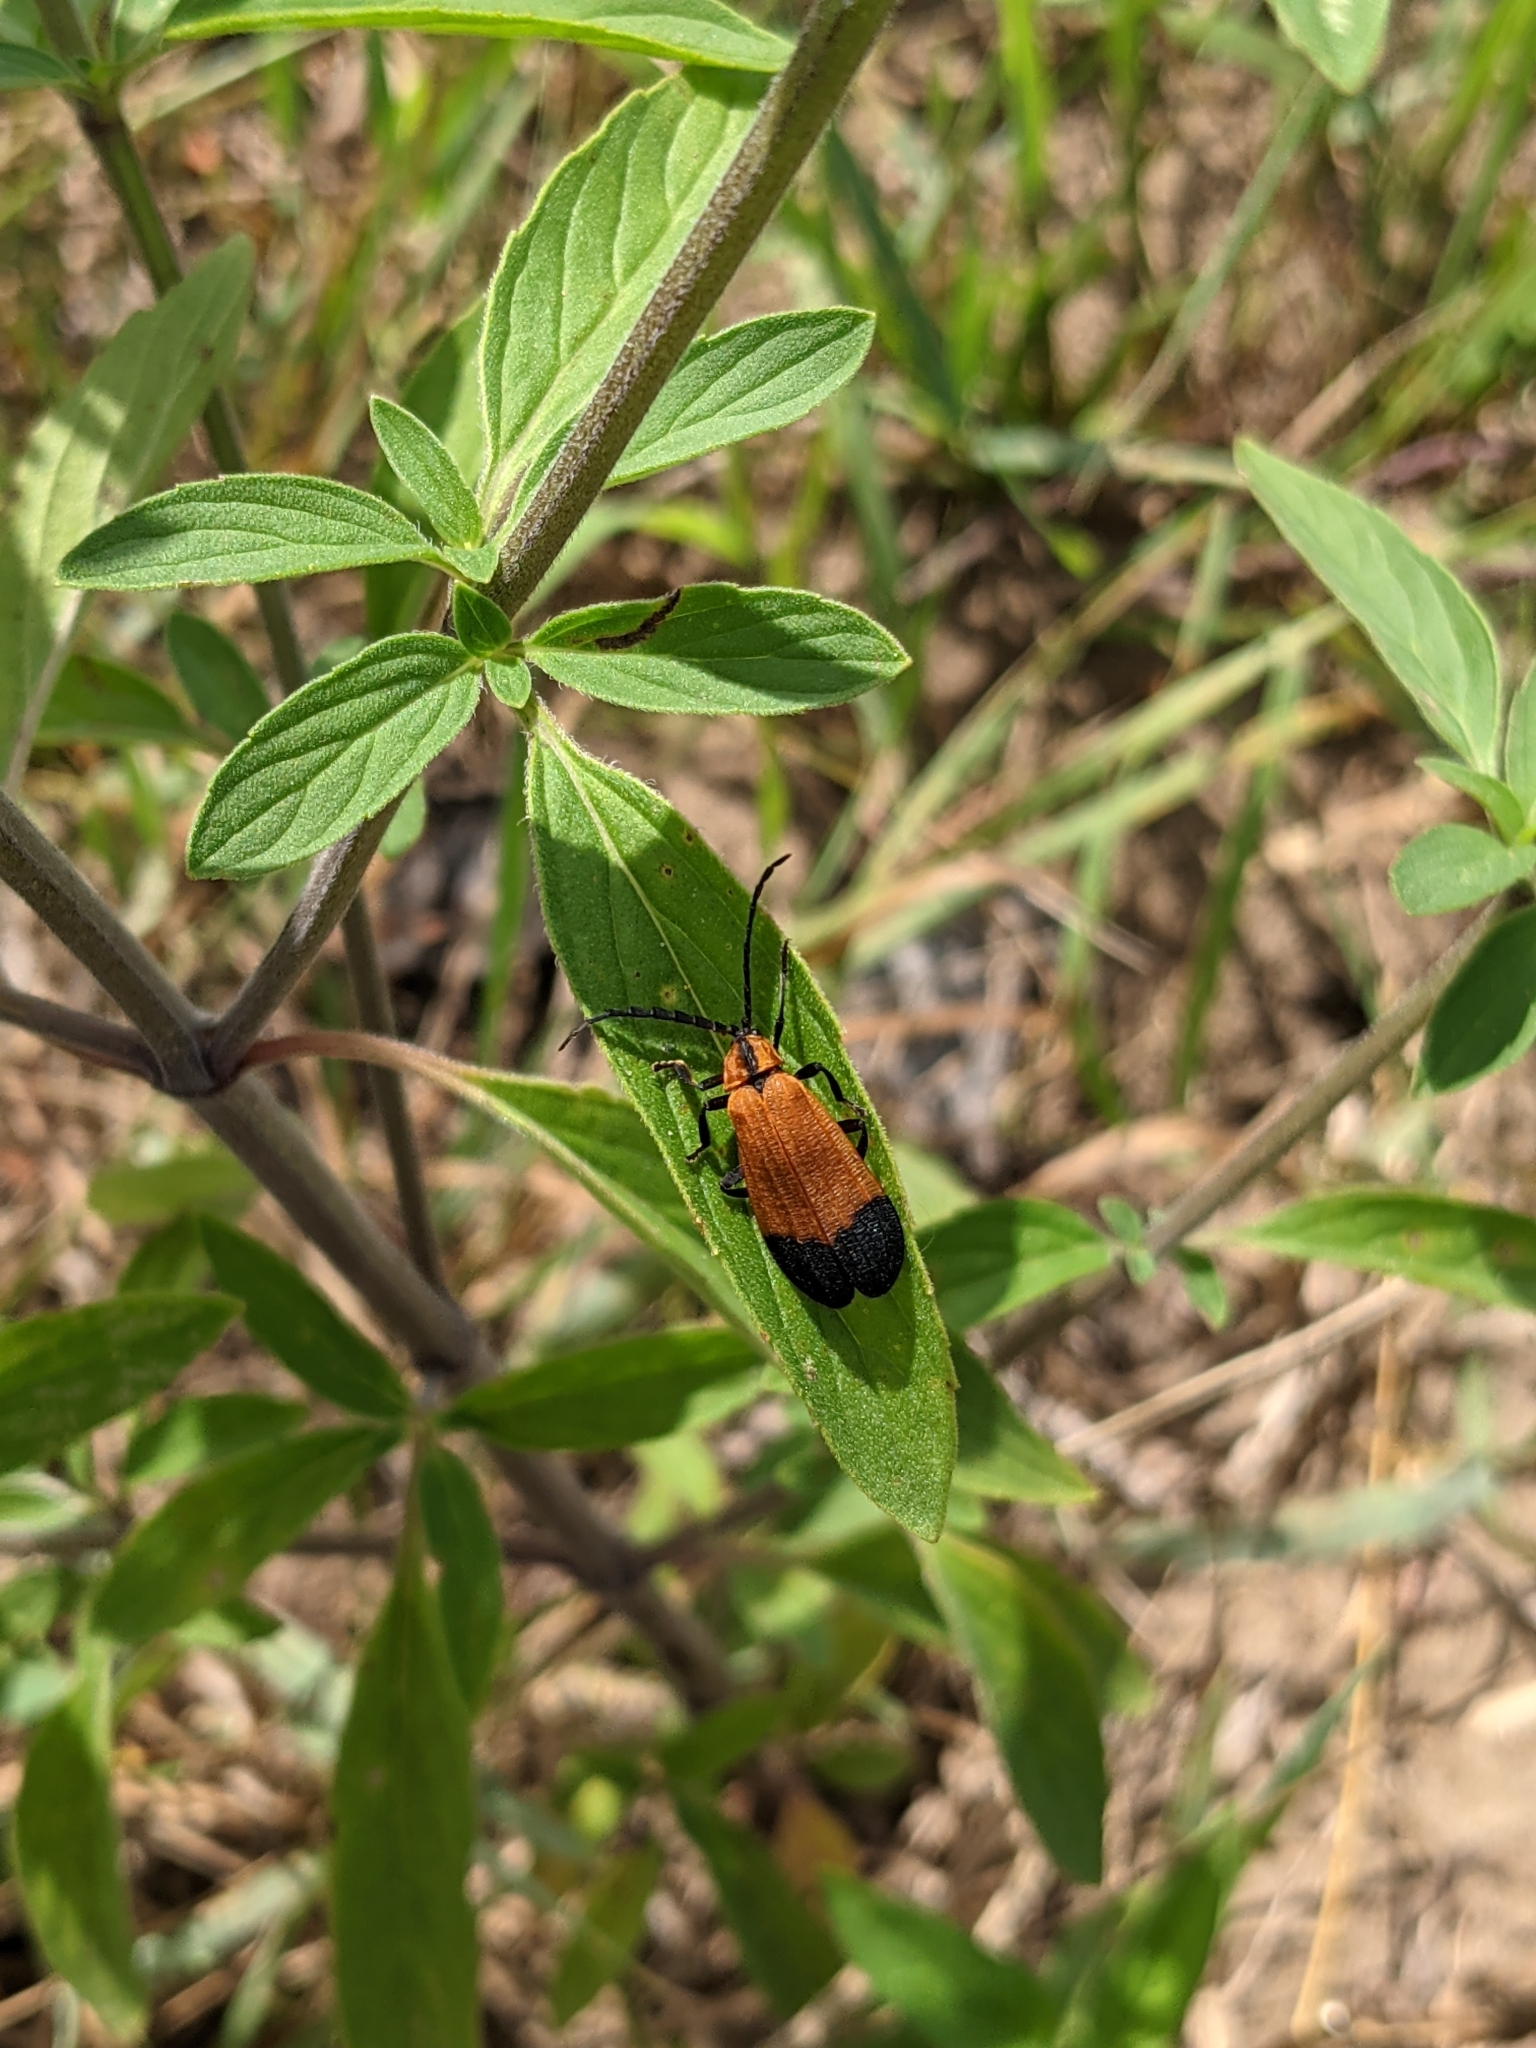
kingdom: Animalia
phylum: Arthropoda
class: Insecta
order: Coleoptera
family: Lycidae
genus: Calopteron
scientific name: Calopteron terminale
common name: End band net-winged beetle
